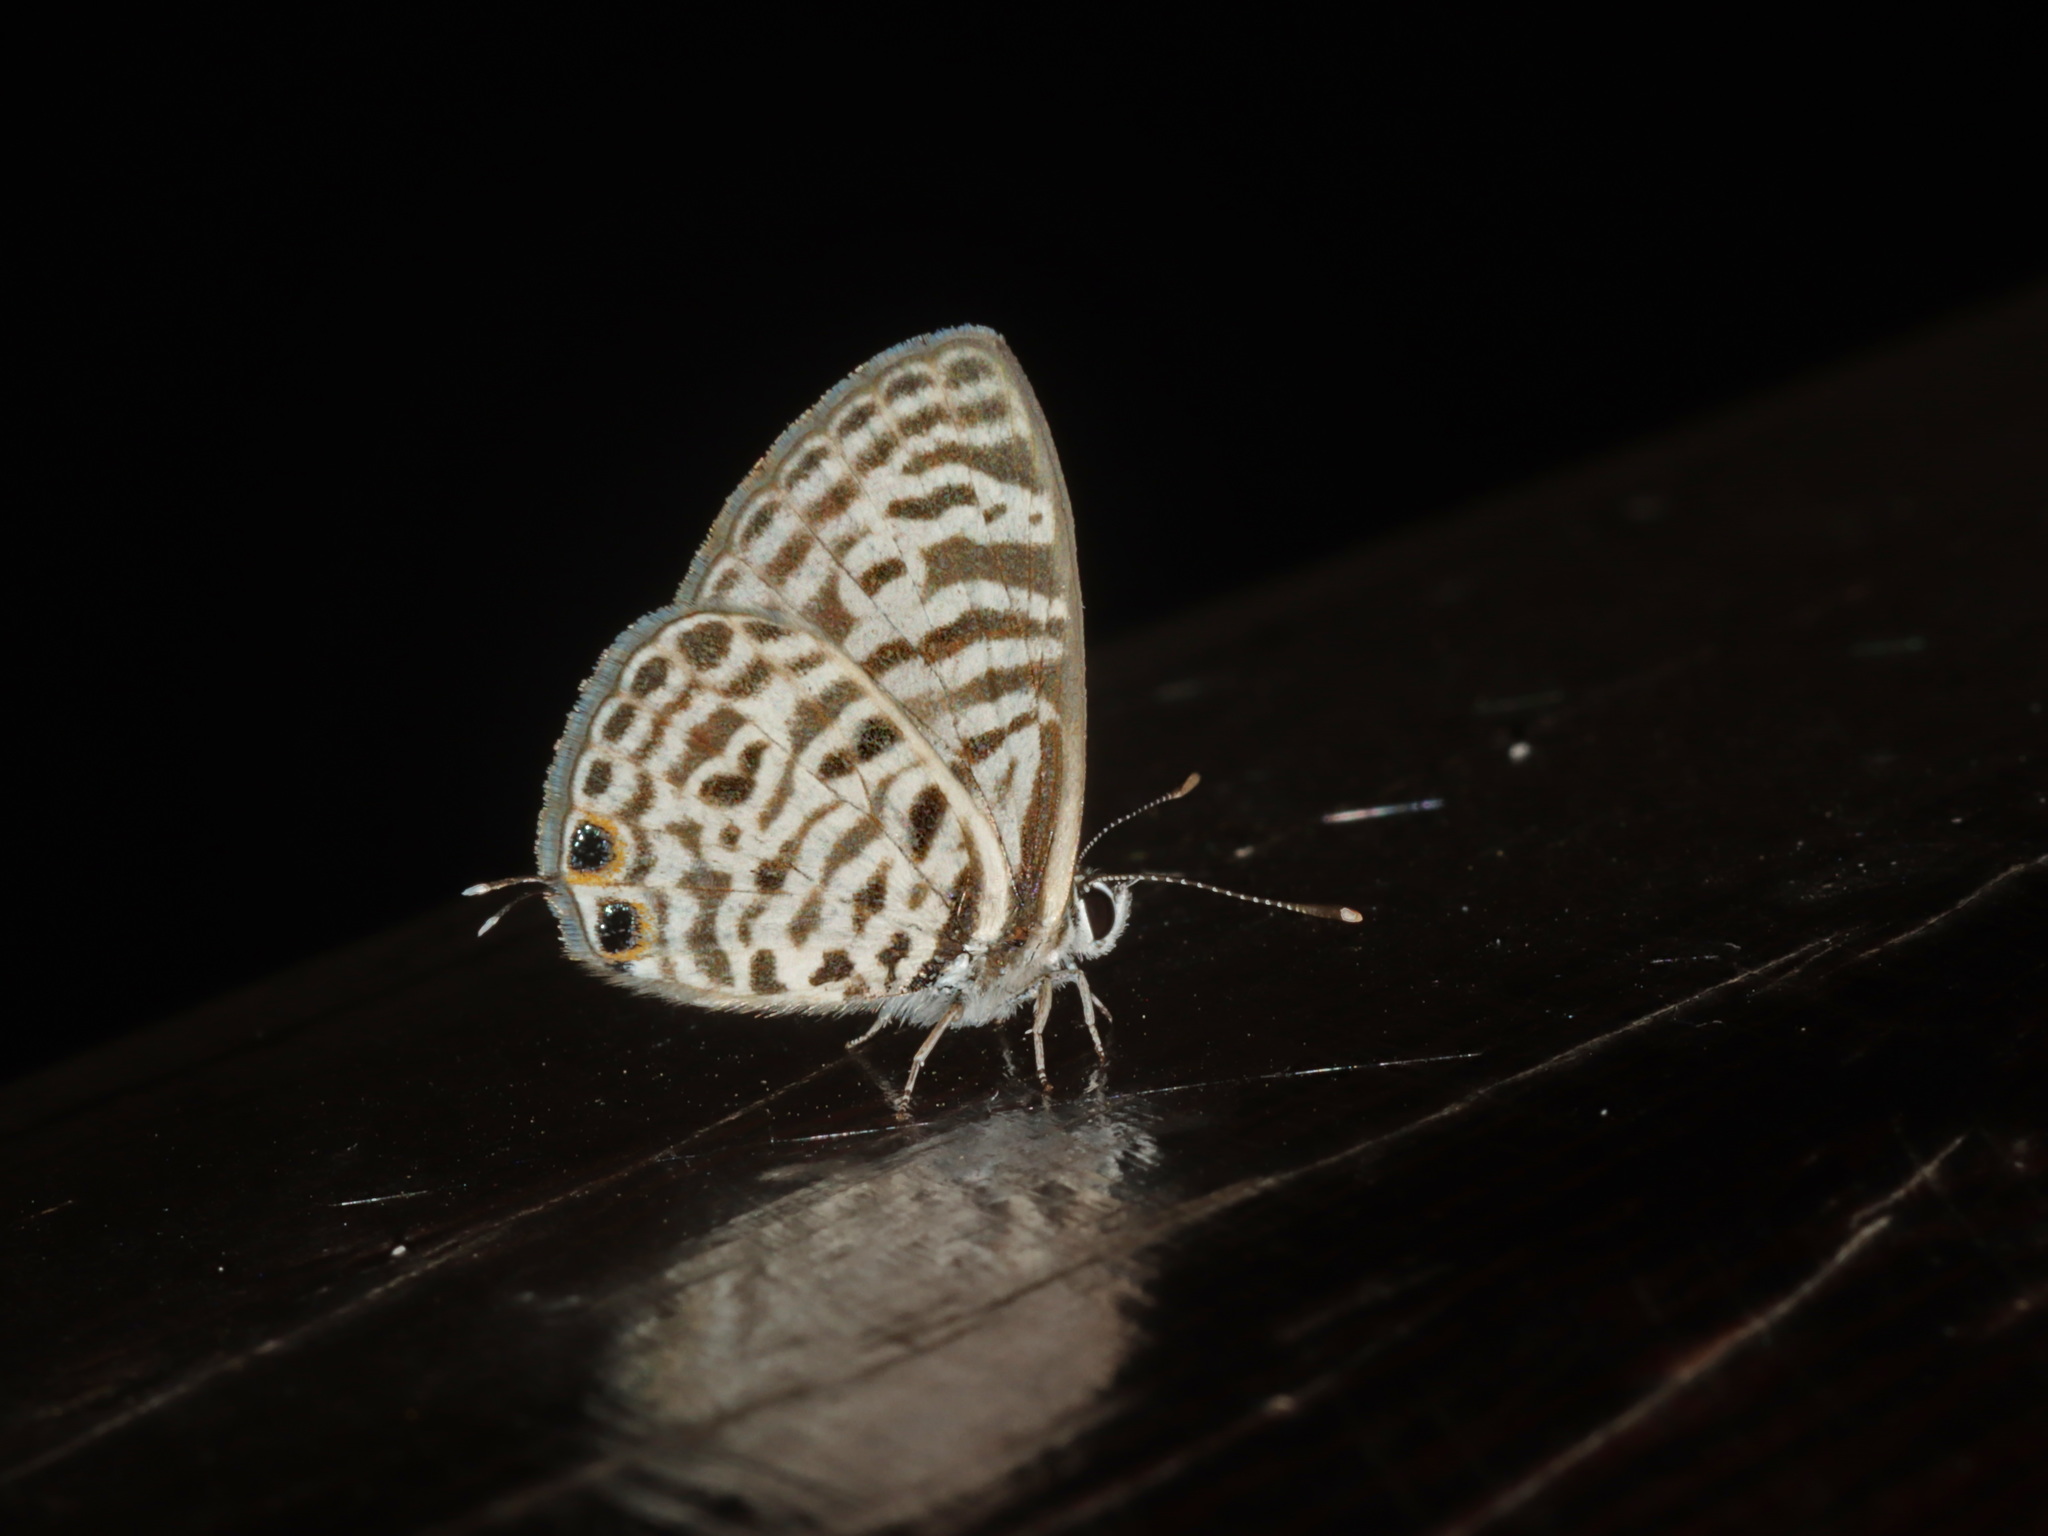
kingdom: Animalia
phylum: Arthropoda
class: Insecta
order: Lepidoptera
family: Lycaenidae
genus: Leptotes
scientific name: Leptotes plinius
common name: Zebra blue
